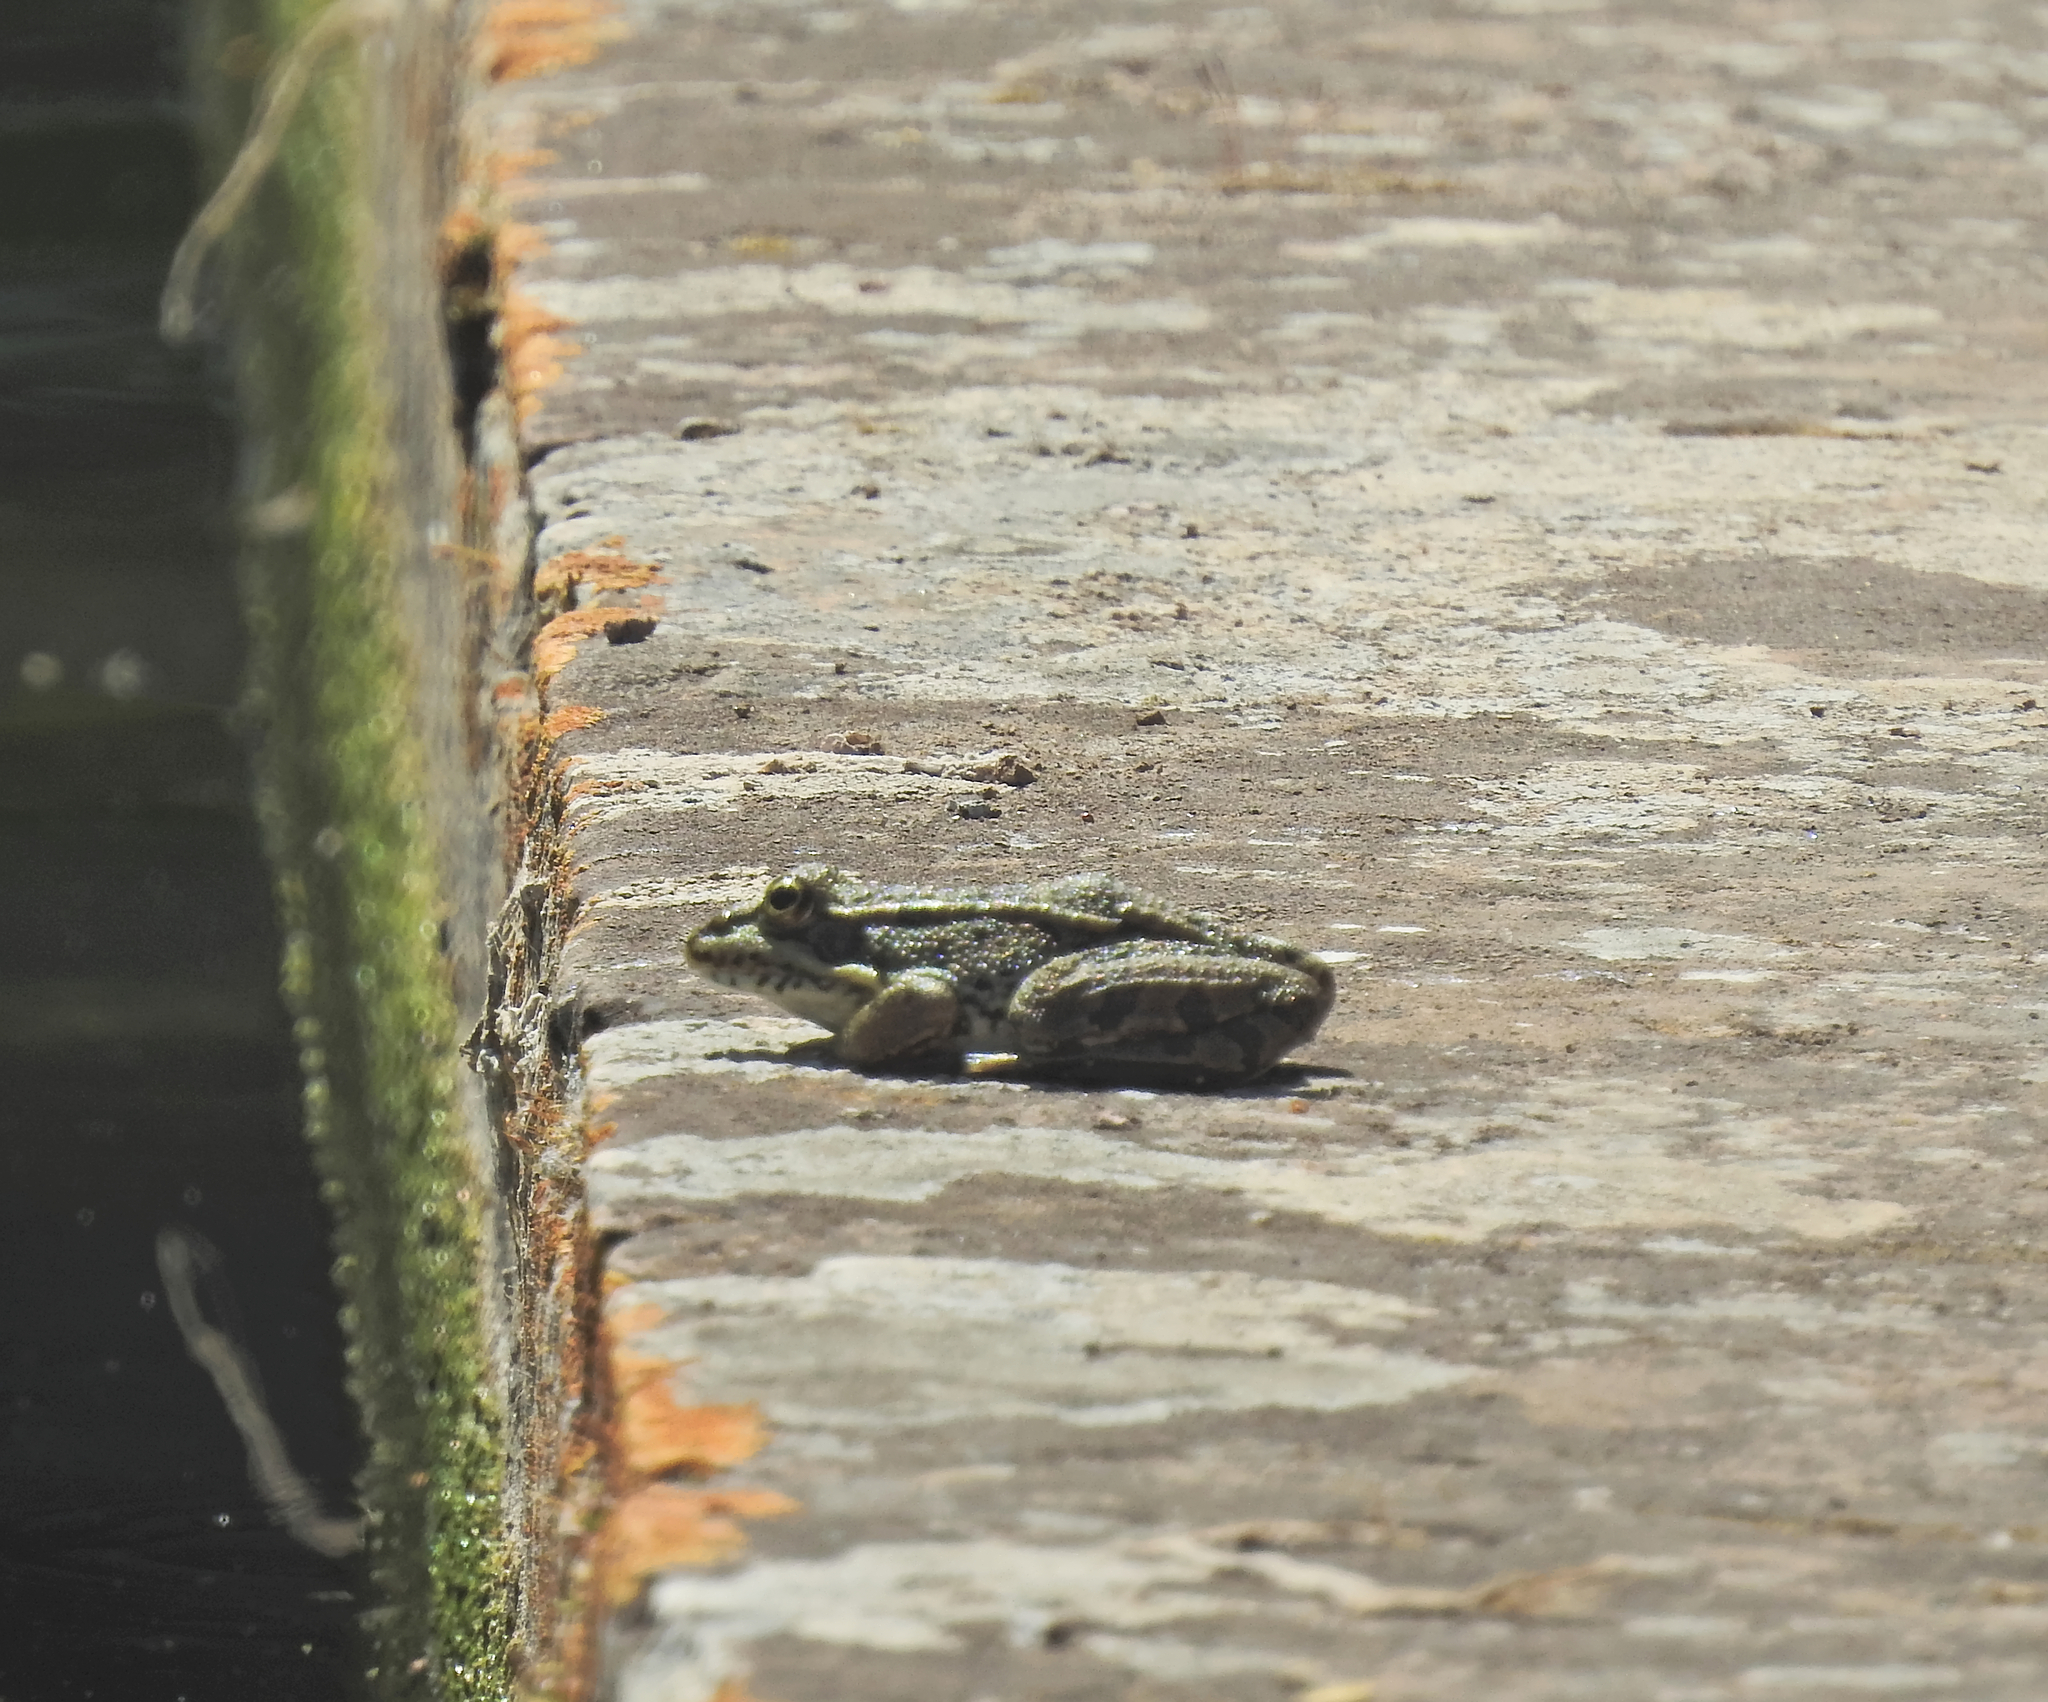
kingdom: Animalia
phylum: Chordata
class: Amphibia
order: Anura
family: Ranidae
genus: Pelophylax
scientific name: Pelophylax perezi
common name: Perez's frog
